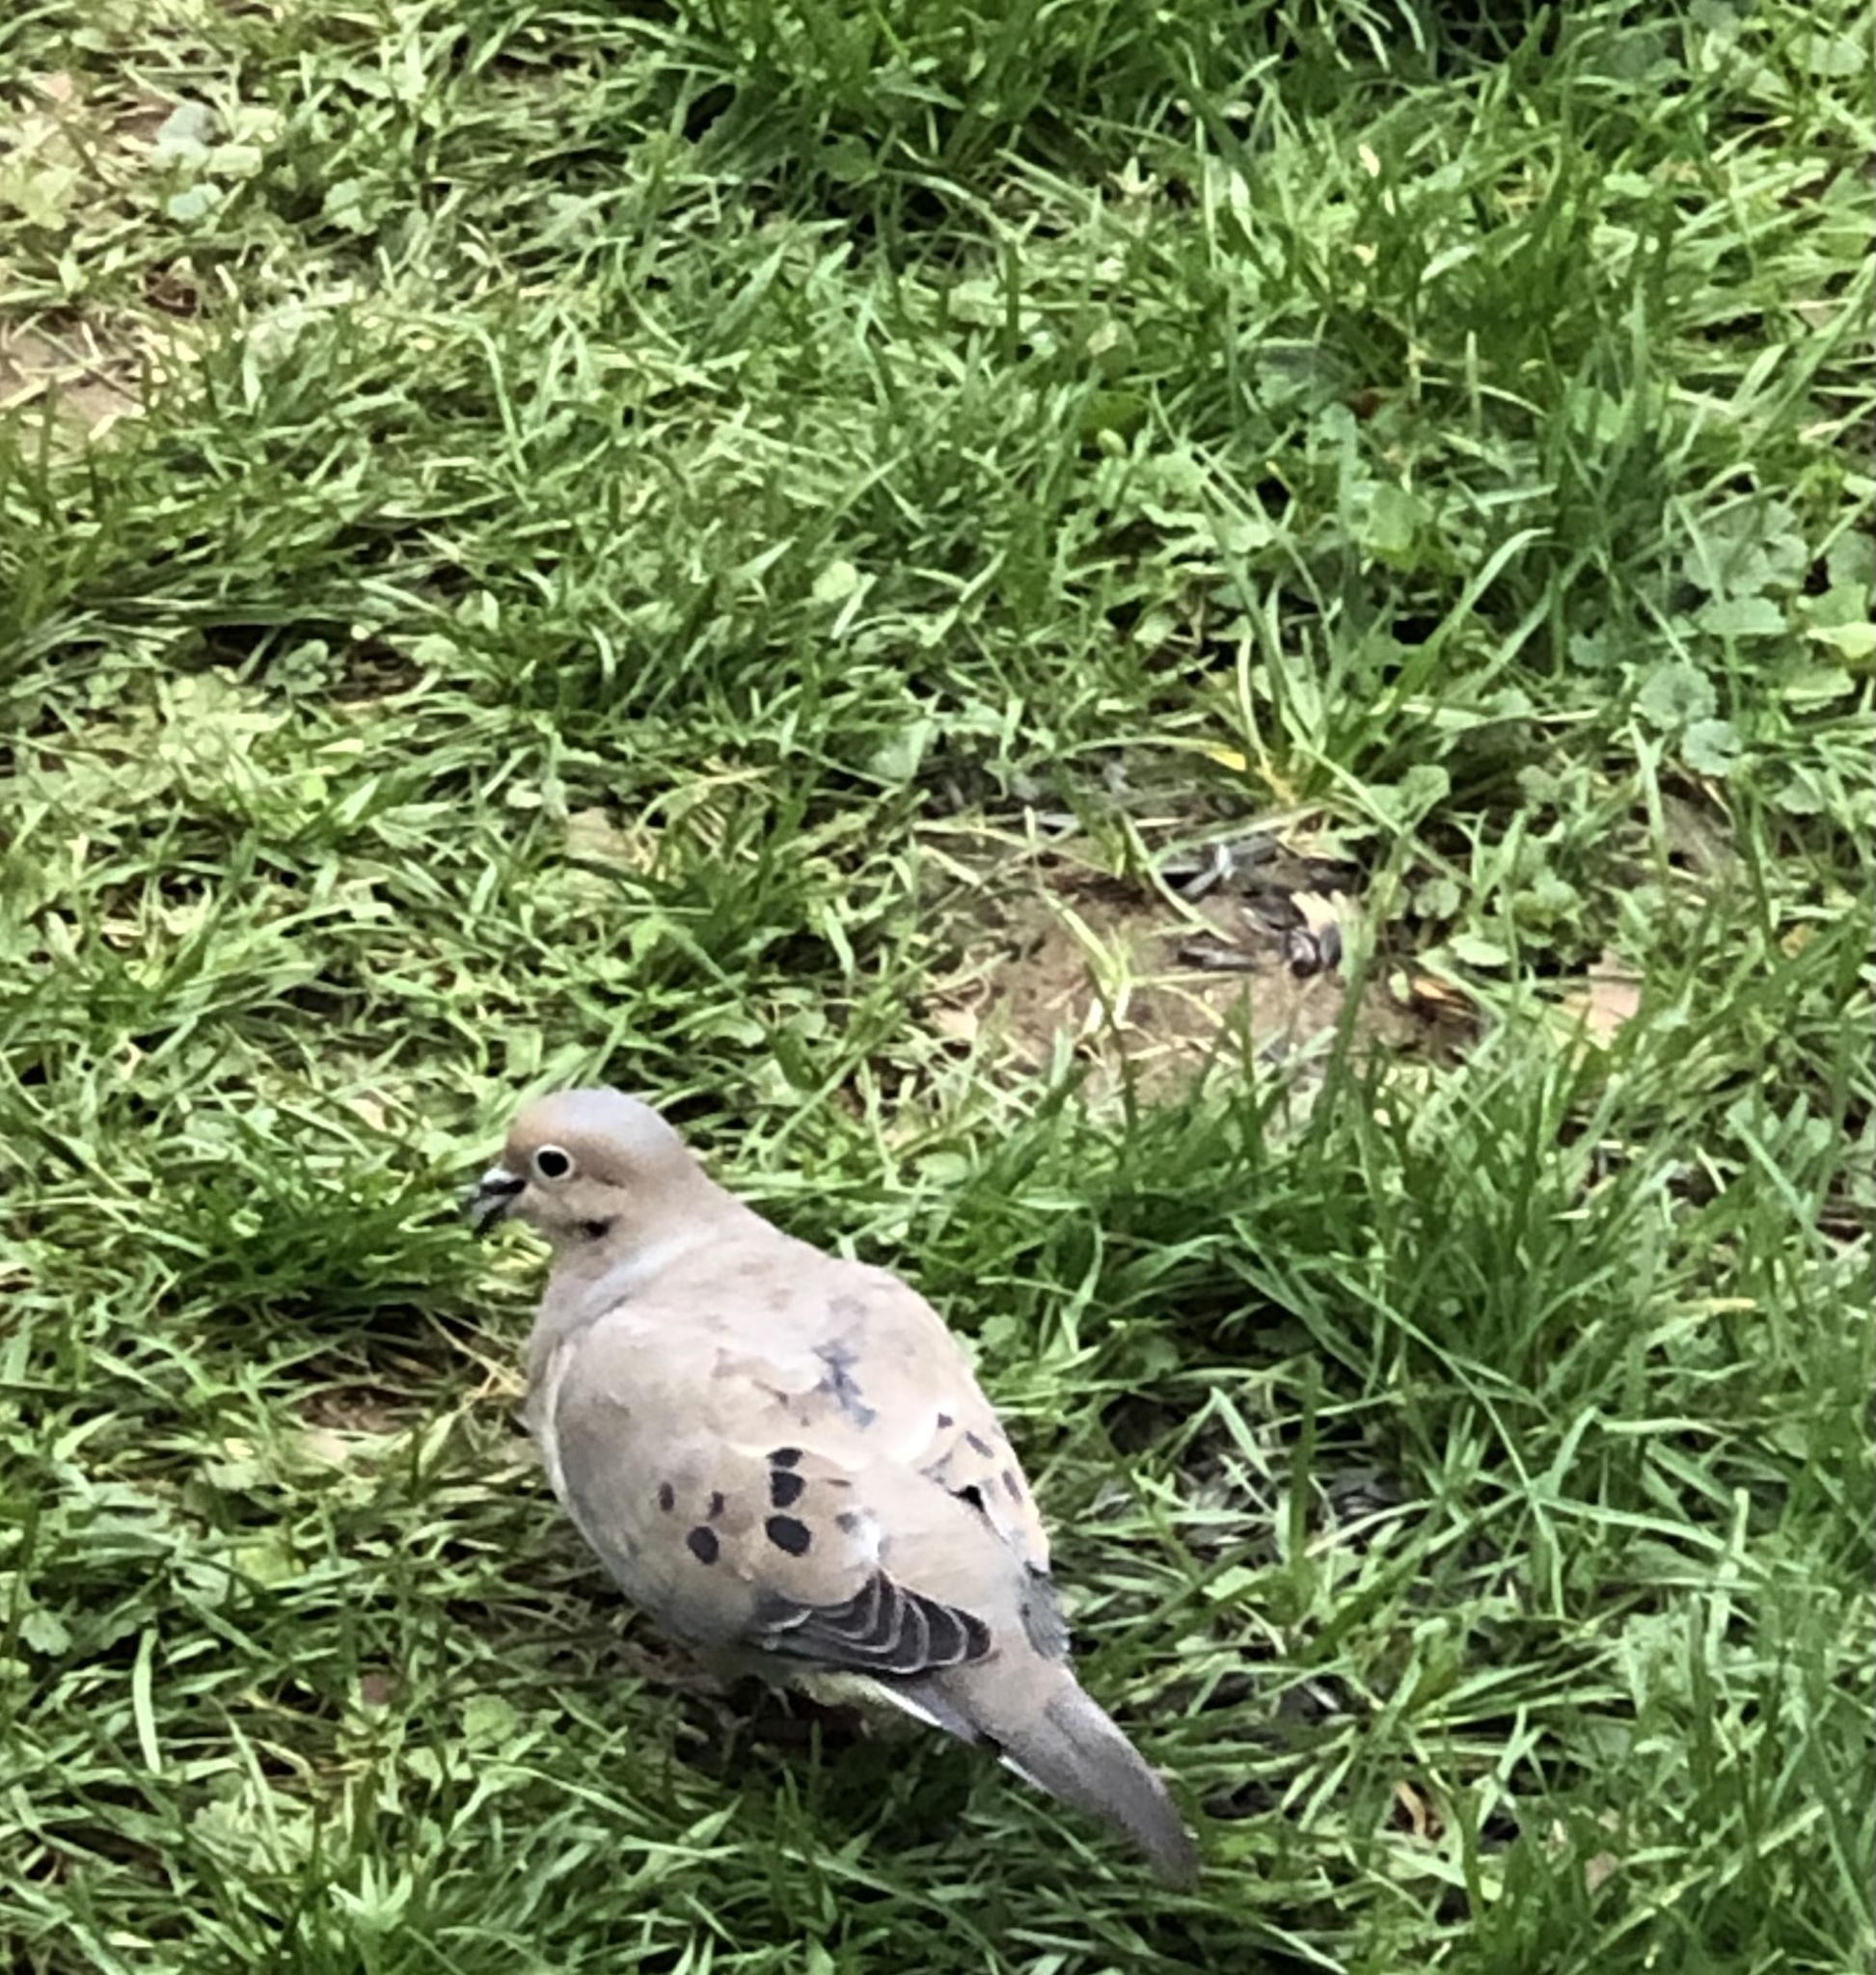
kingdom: Animalia
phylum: Chordata
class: Aves
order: Columbiformes
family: Columbidae
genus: Zenaida
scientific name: Zenaida macroura
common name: Mourning dove
